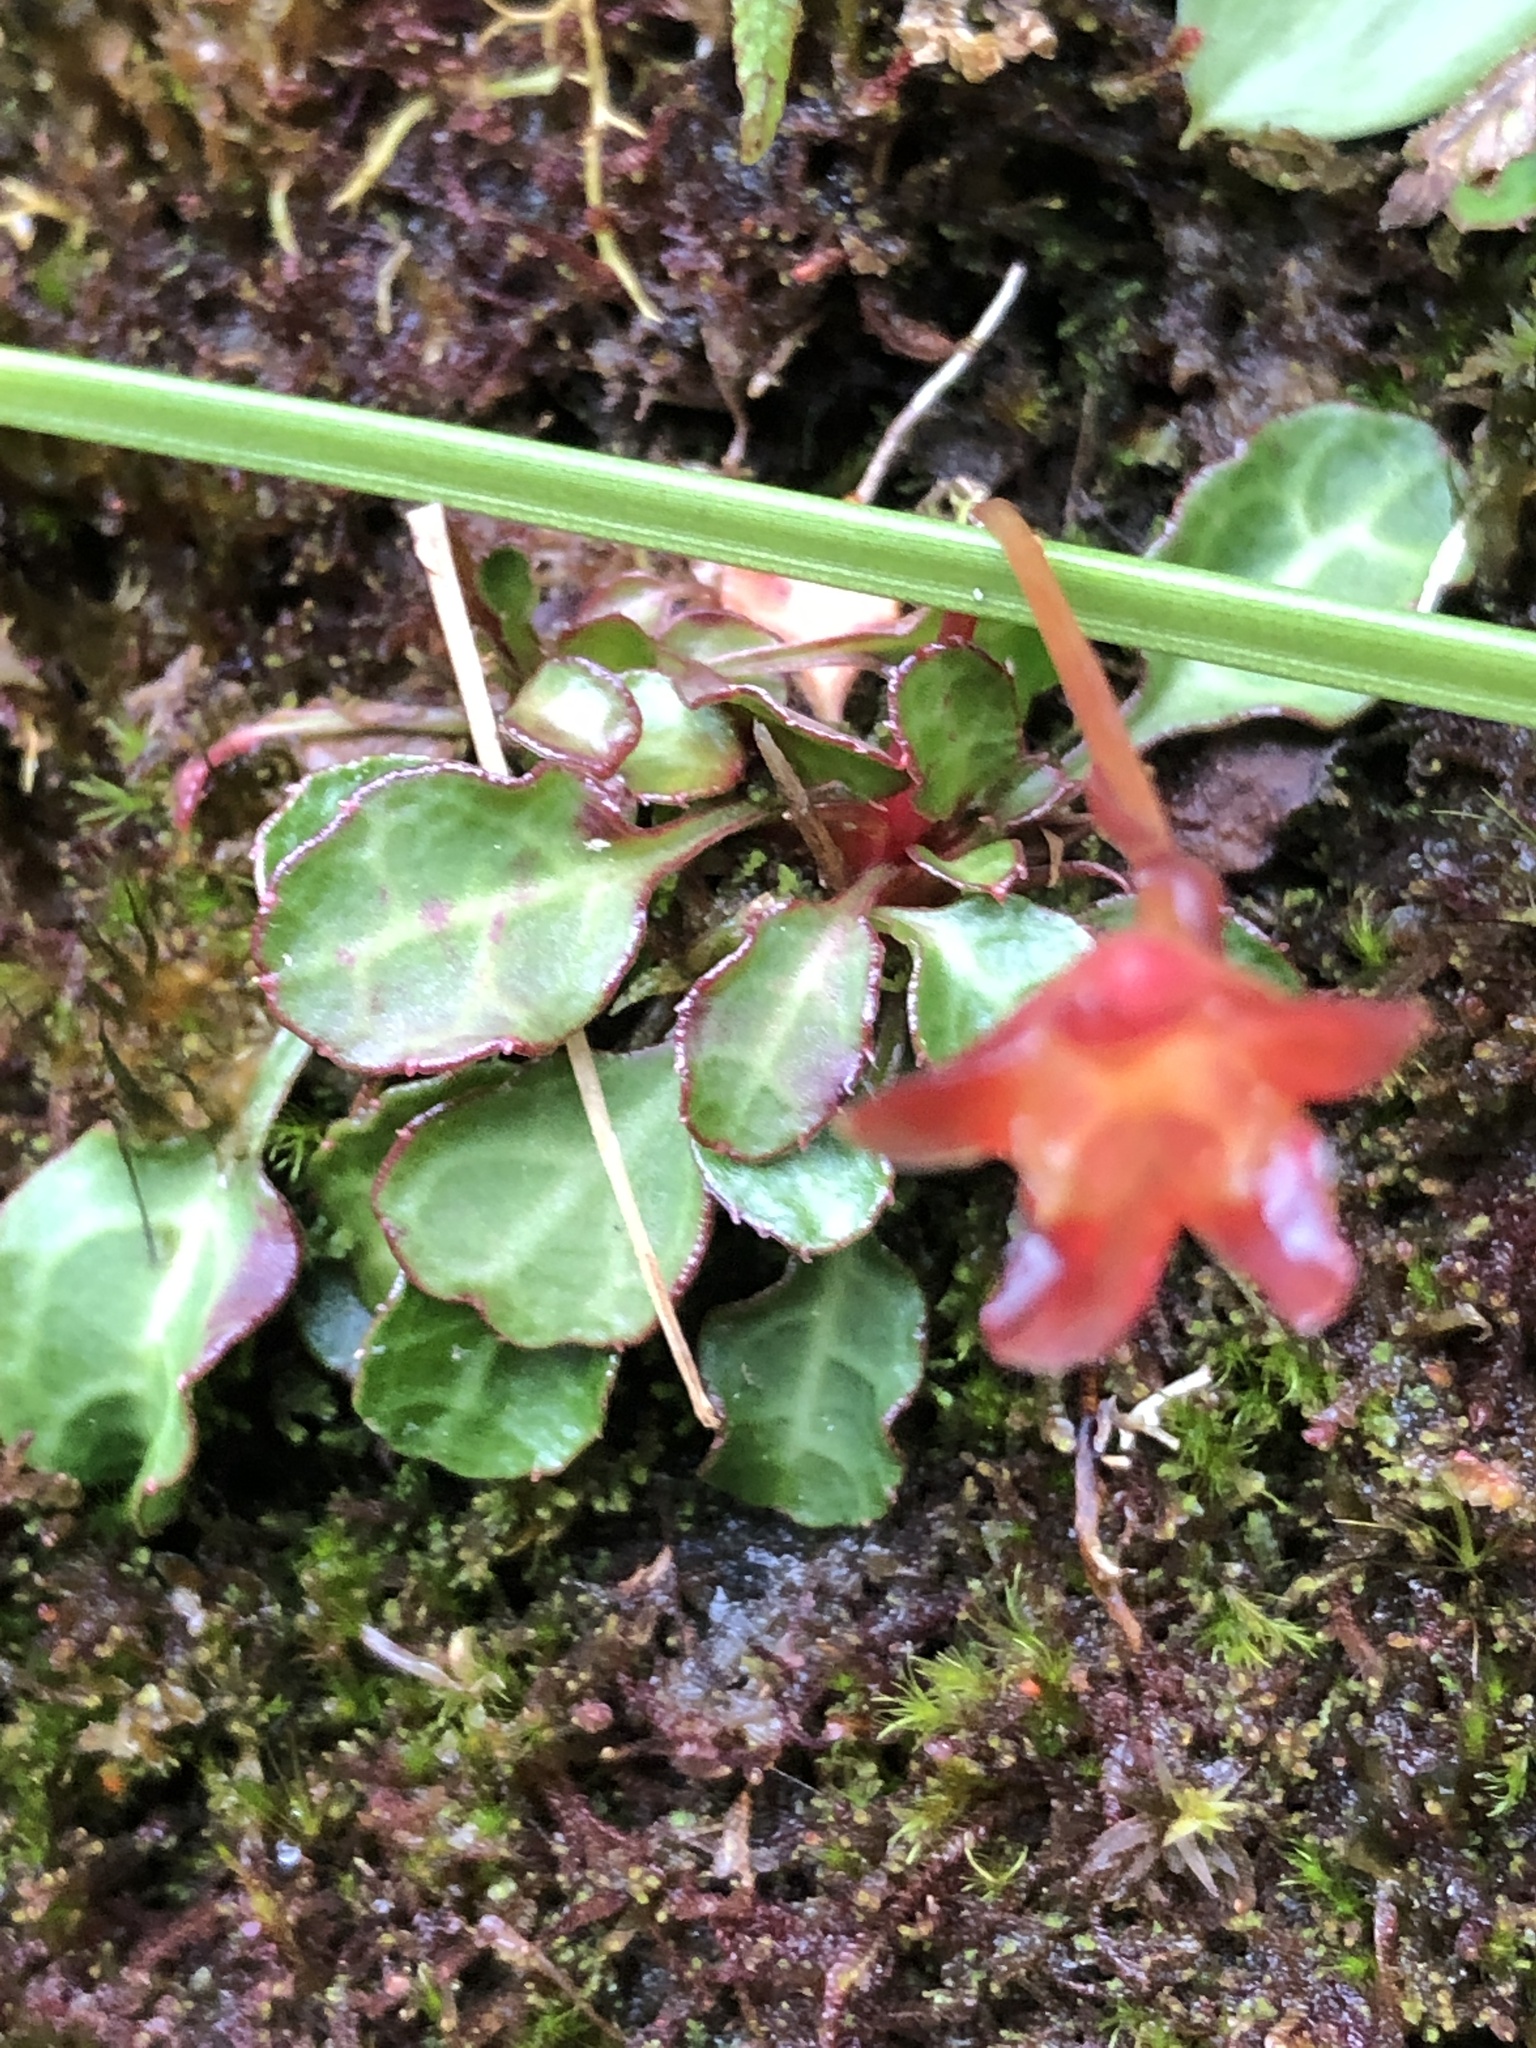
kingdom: Plantae
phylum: Tracheophyta
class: Magnoliopsida
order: Ericales
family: Diapensiaceae
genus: Shortia
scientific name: Shortia rotundifolia
